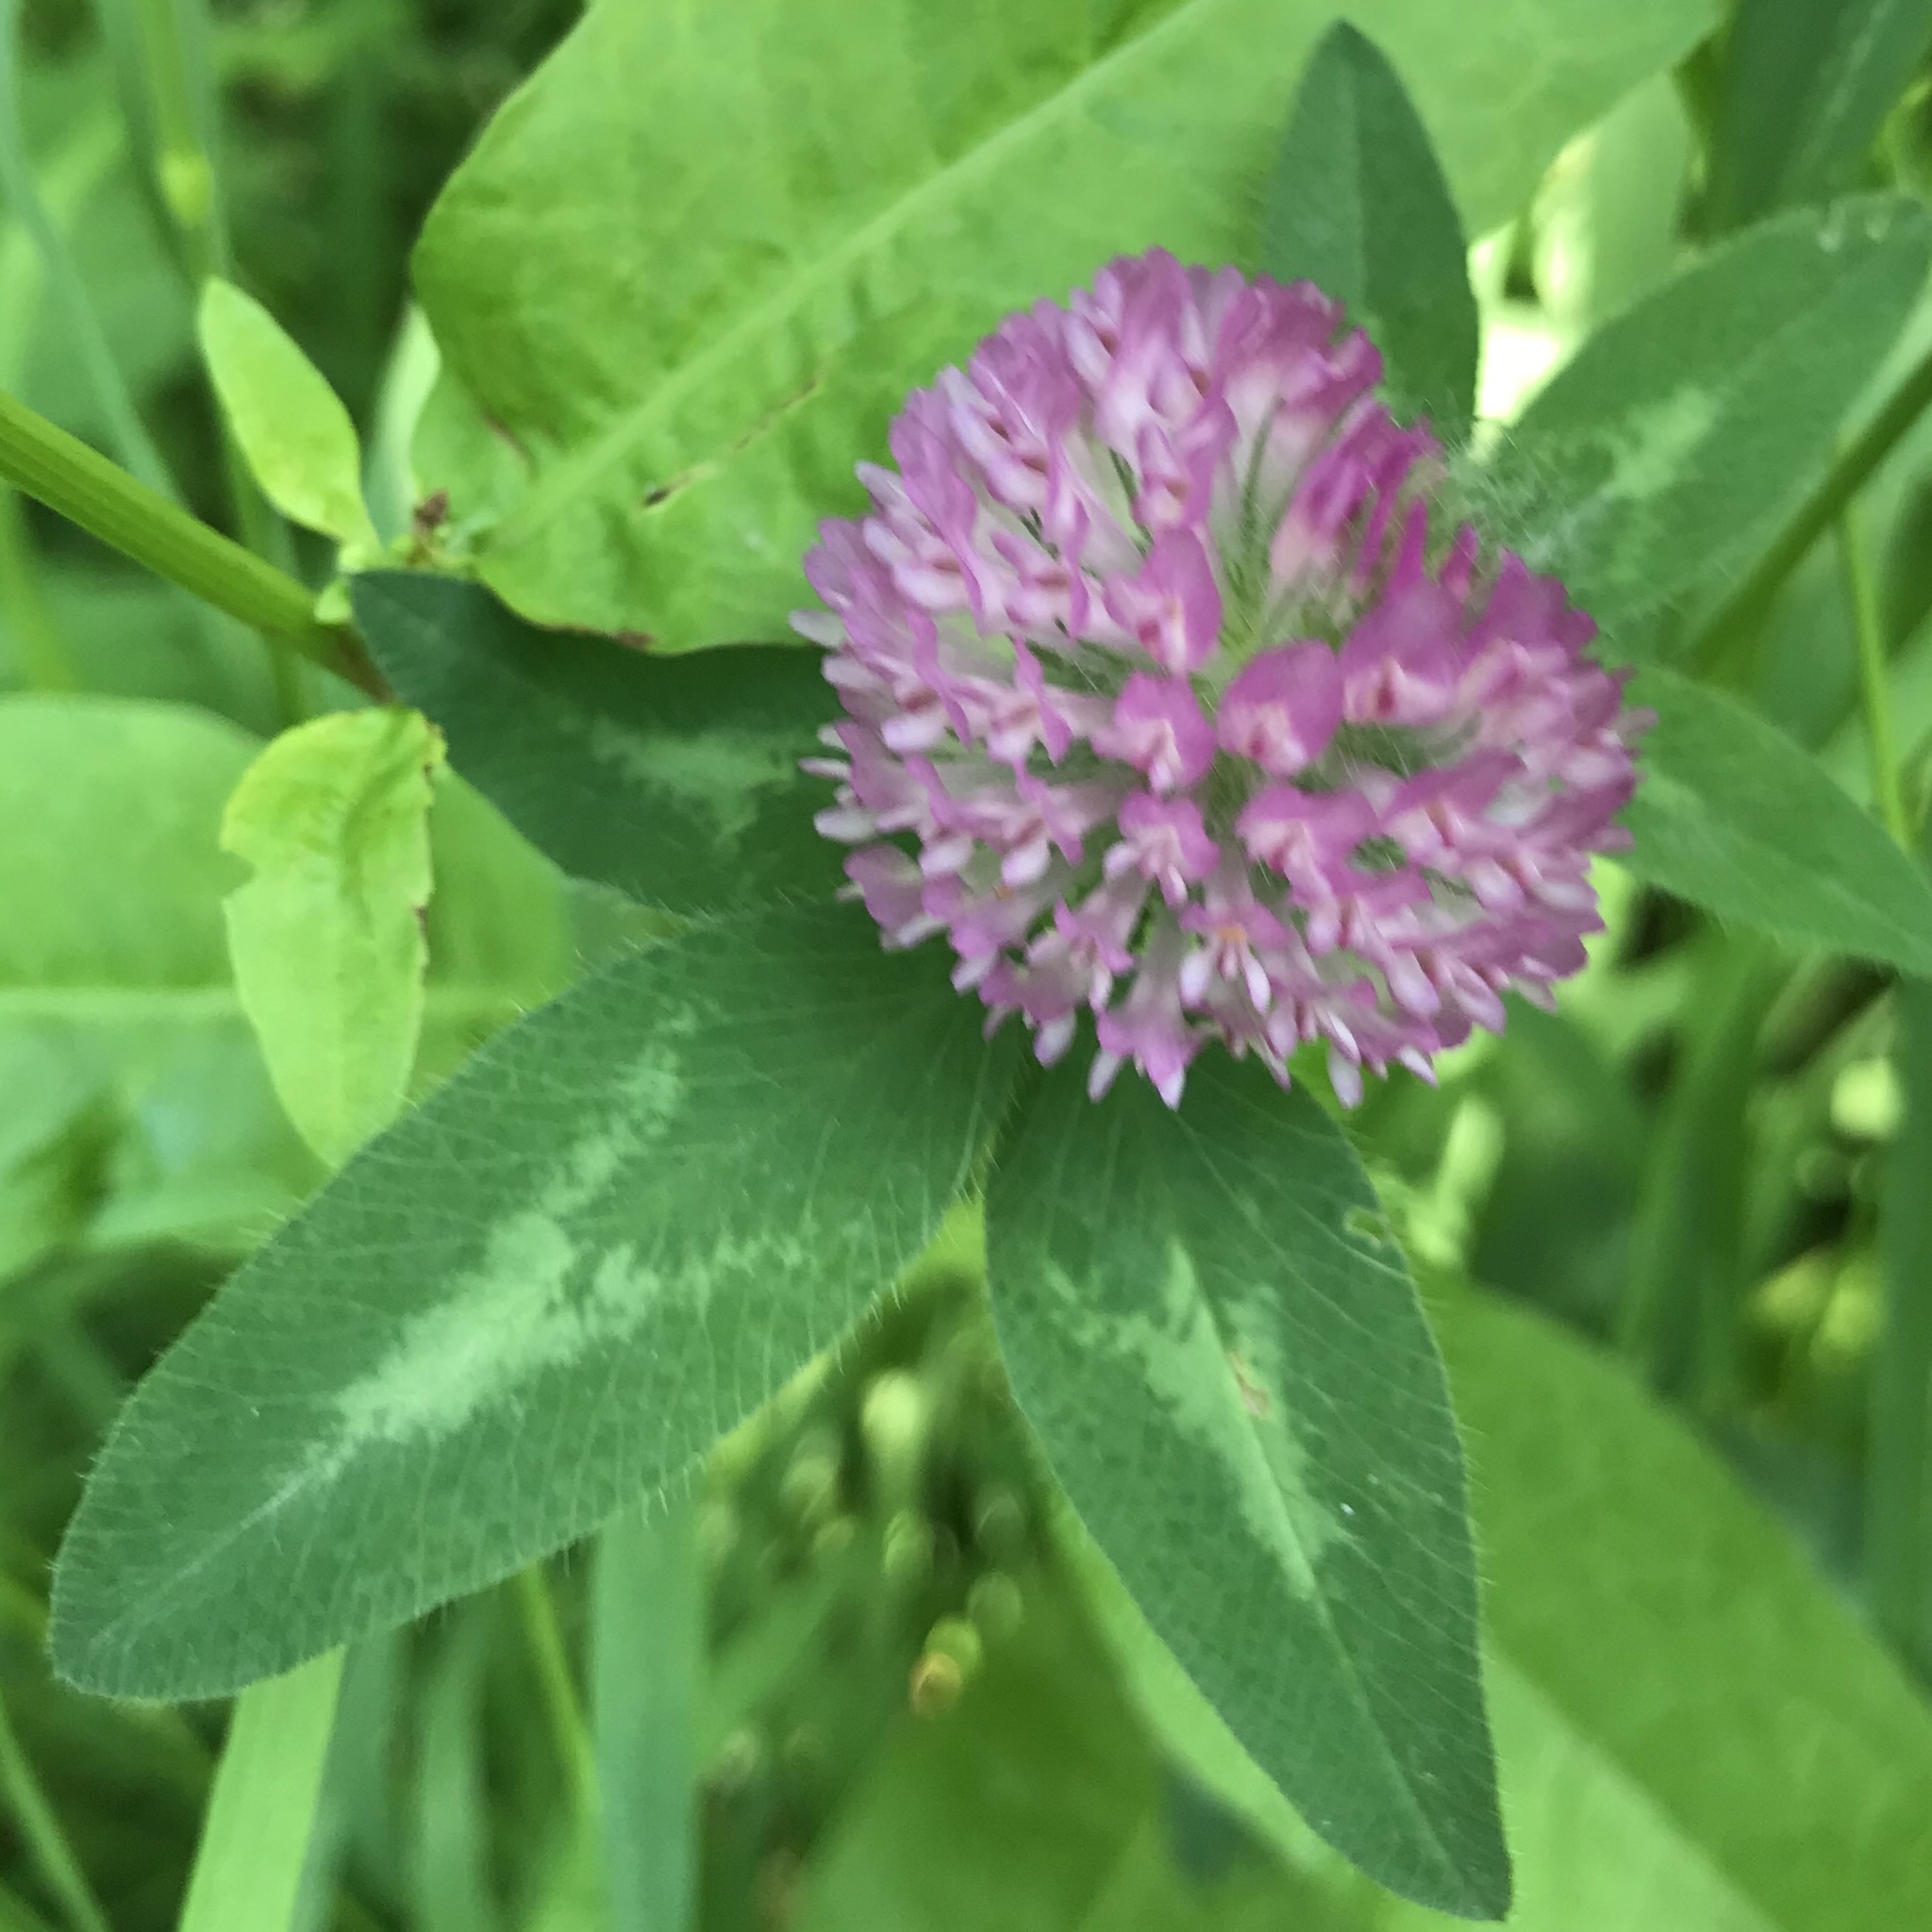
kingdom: Plantae
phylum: Tracheophyta
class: Magnoliopsida
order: Fabales
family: Fabaceae
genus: Trifolium
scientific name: Trifolium pratense
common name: Red clover
